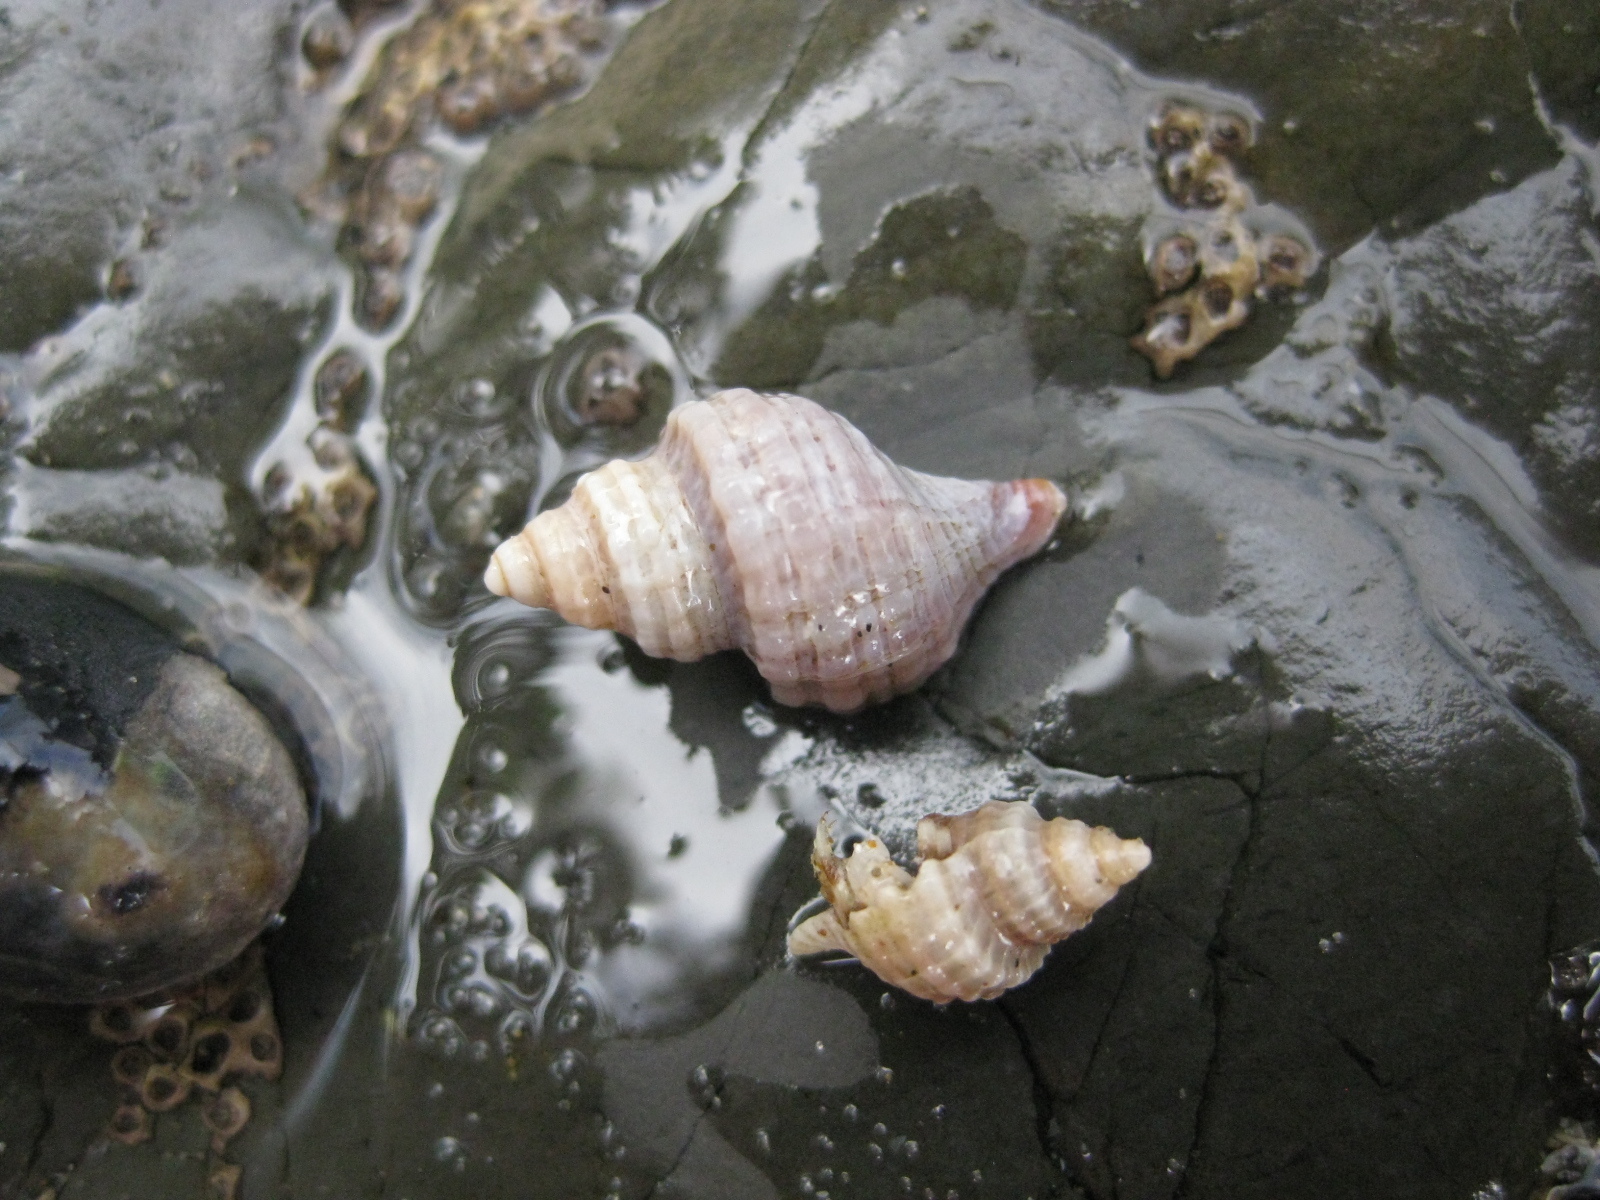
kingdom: Animalia
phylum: Mollusca
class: Gastropoda
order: Neogastropoda
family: Muricidae
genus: Zeatrophon
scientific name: Zeatrophon ambiguus
